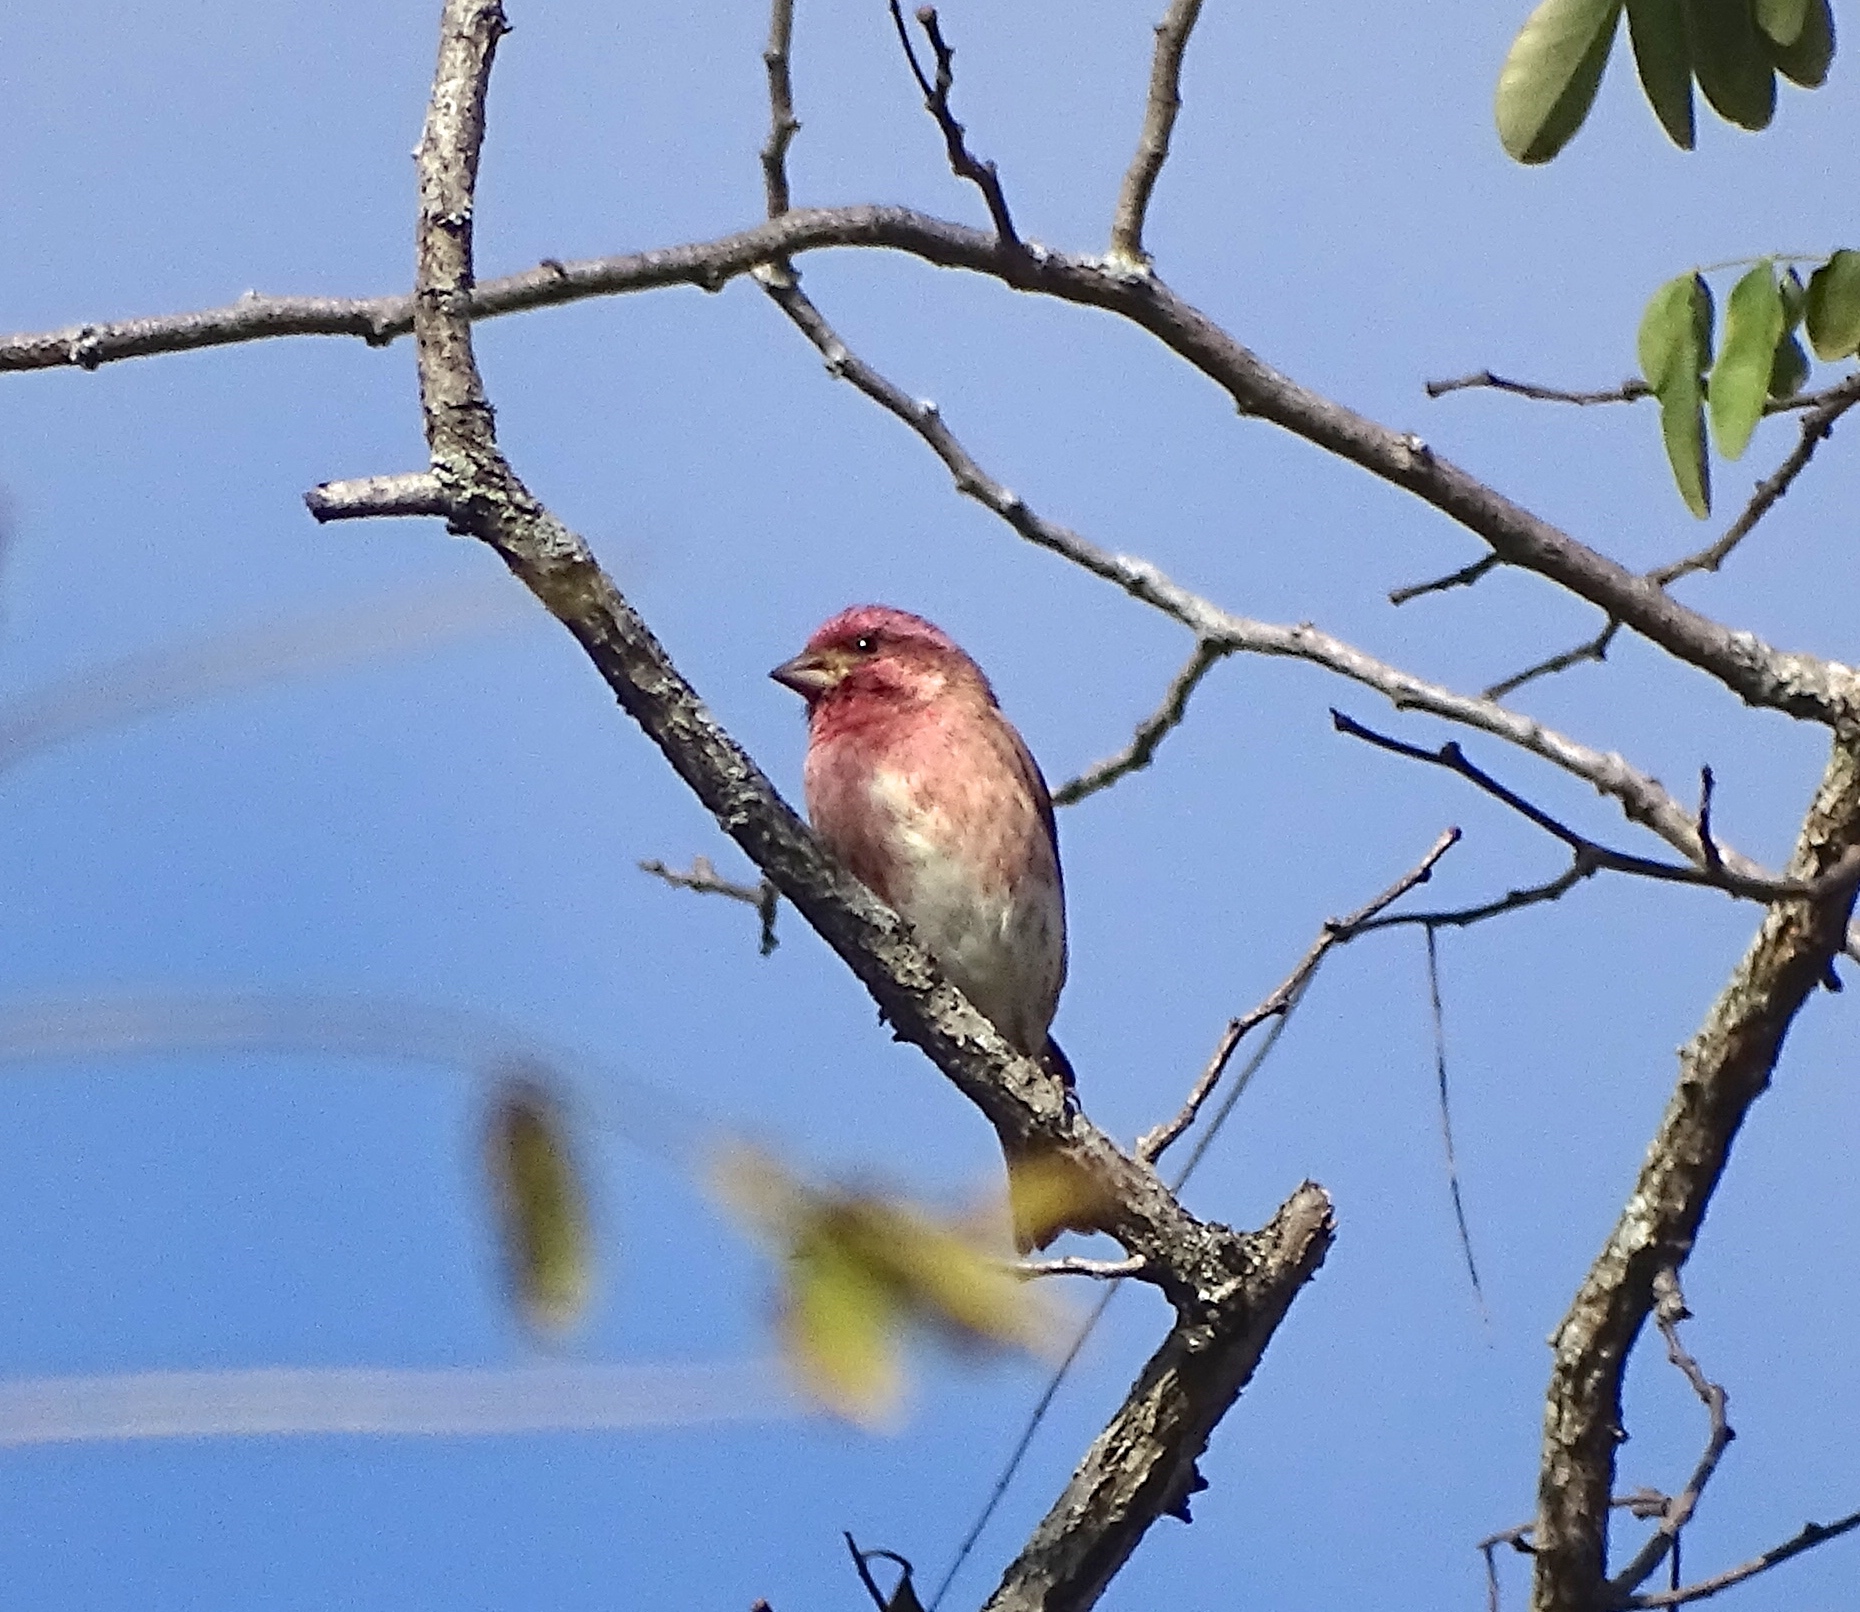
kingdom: Animalia
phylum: Chordata
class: Aves
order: Passeriformes
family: Fringillidae
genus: Haemorhous
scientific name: Haemorhous purpureus
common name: Purple finch
